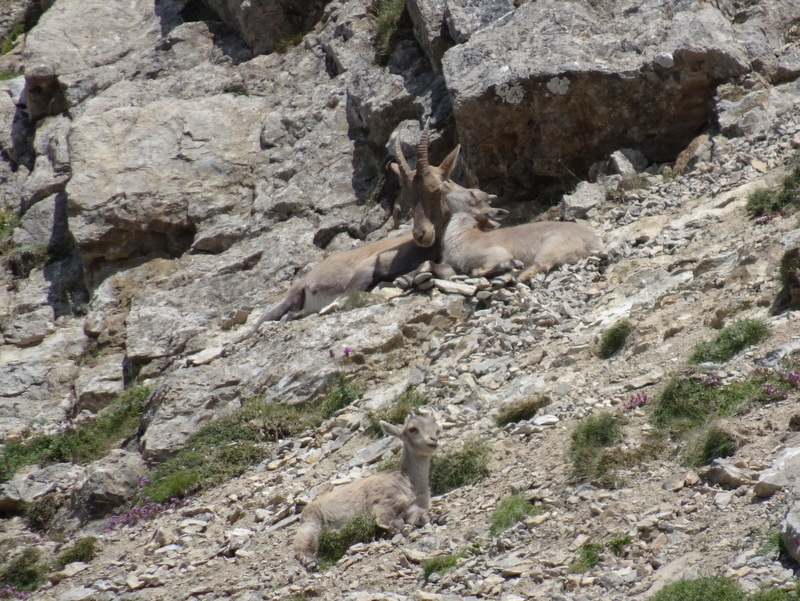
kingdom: Animalia
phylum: Chordata
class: Mammalia
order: Artiodactyla
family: Bovidae
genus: Capra
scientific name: Capra ibex
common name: Alpine ibex
